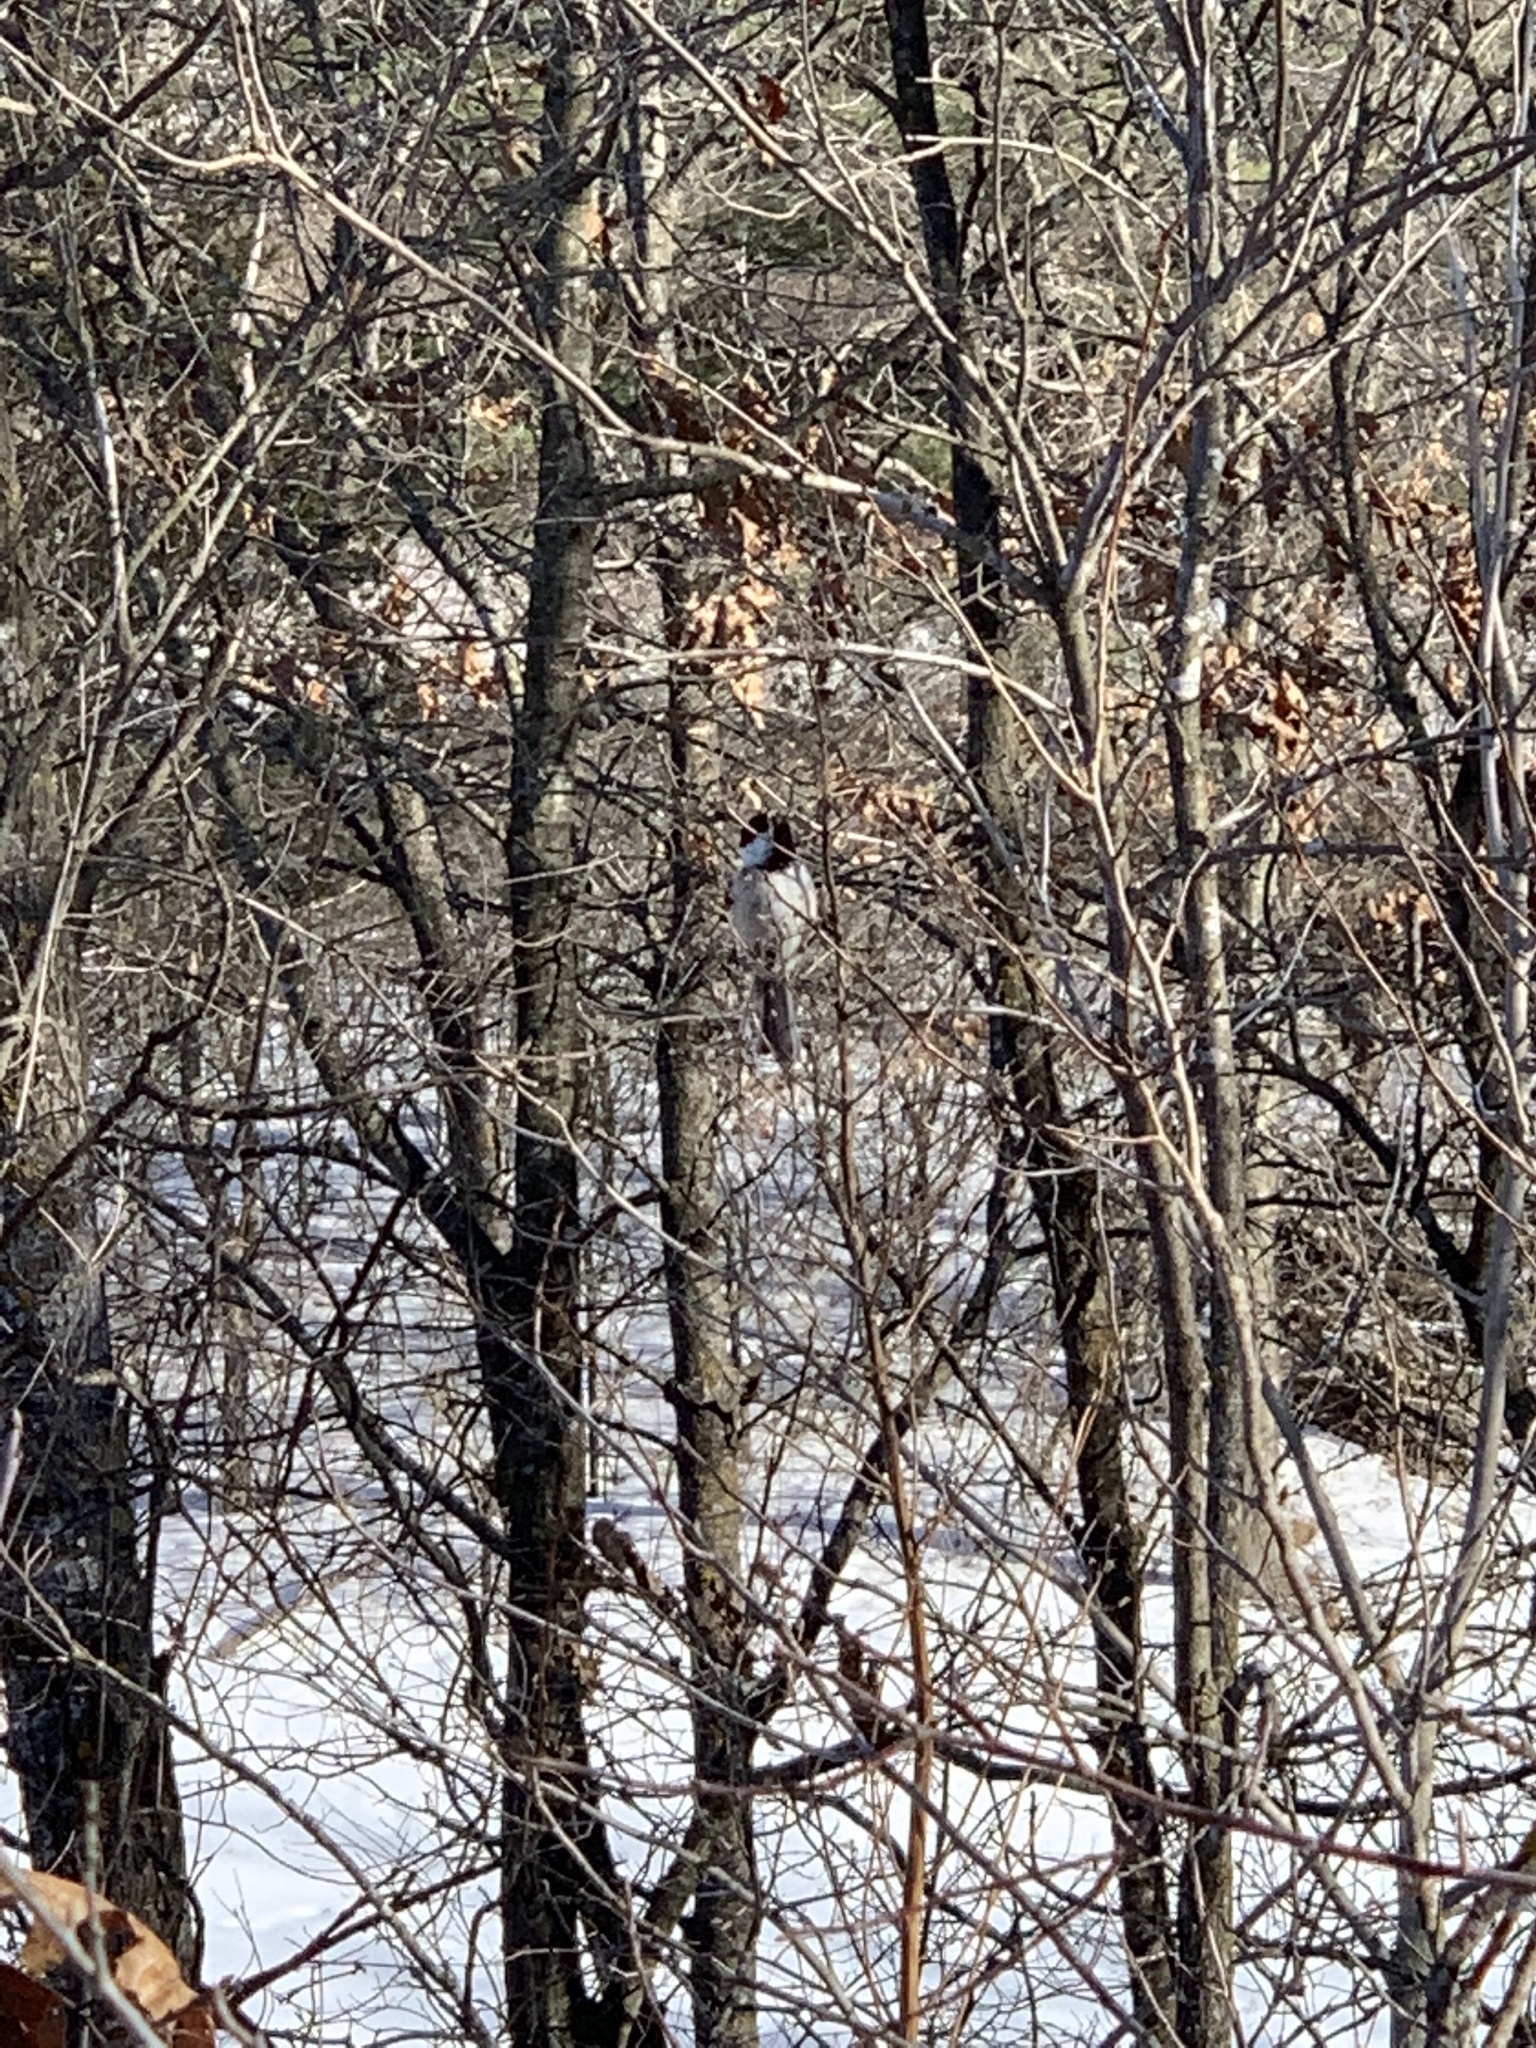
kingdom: Animalia
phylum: Chordata
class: Aves
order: Passeriformes
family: Paridae
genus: Poecile
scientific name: Poecile atricapillus
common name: Black-capped chickadee
